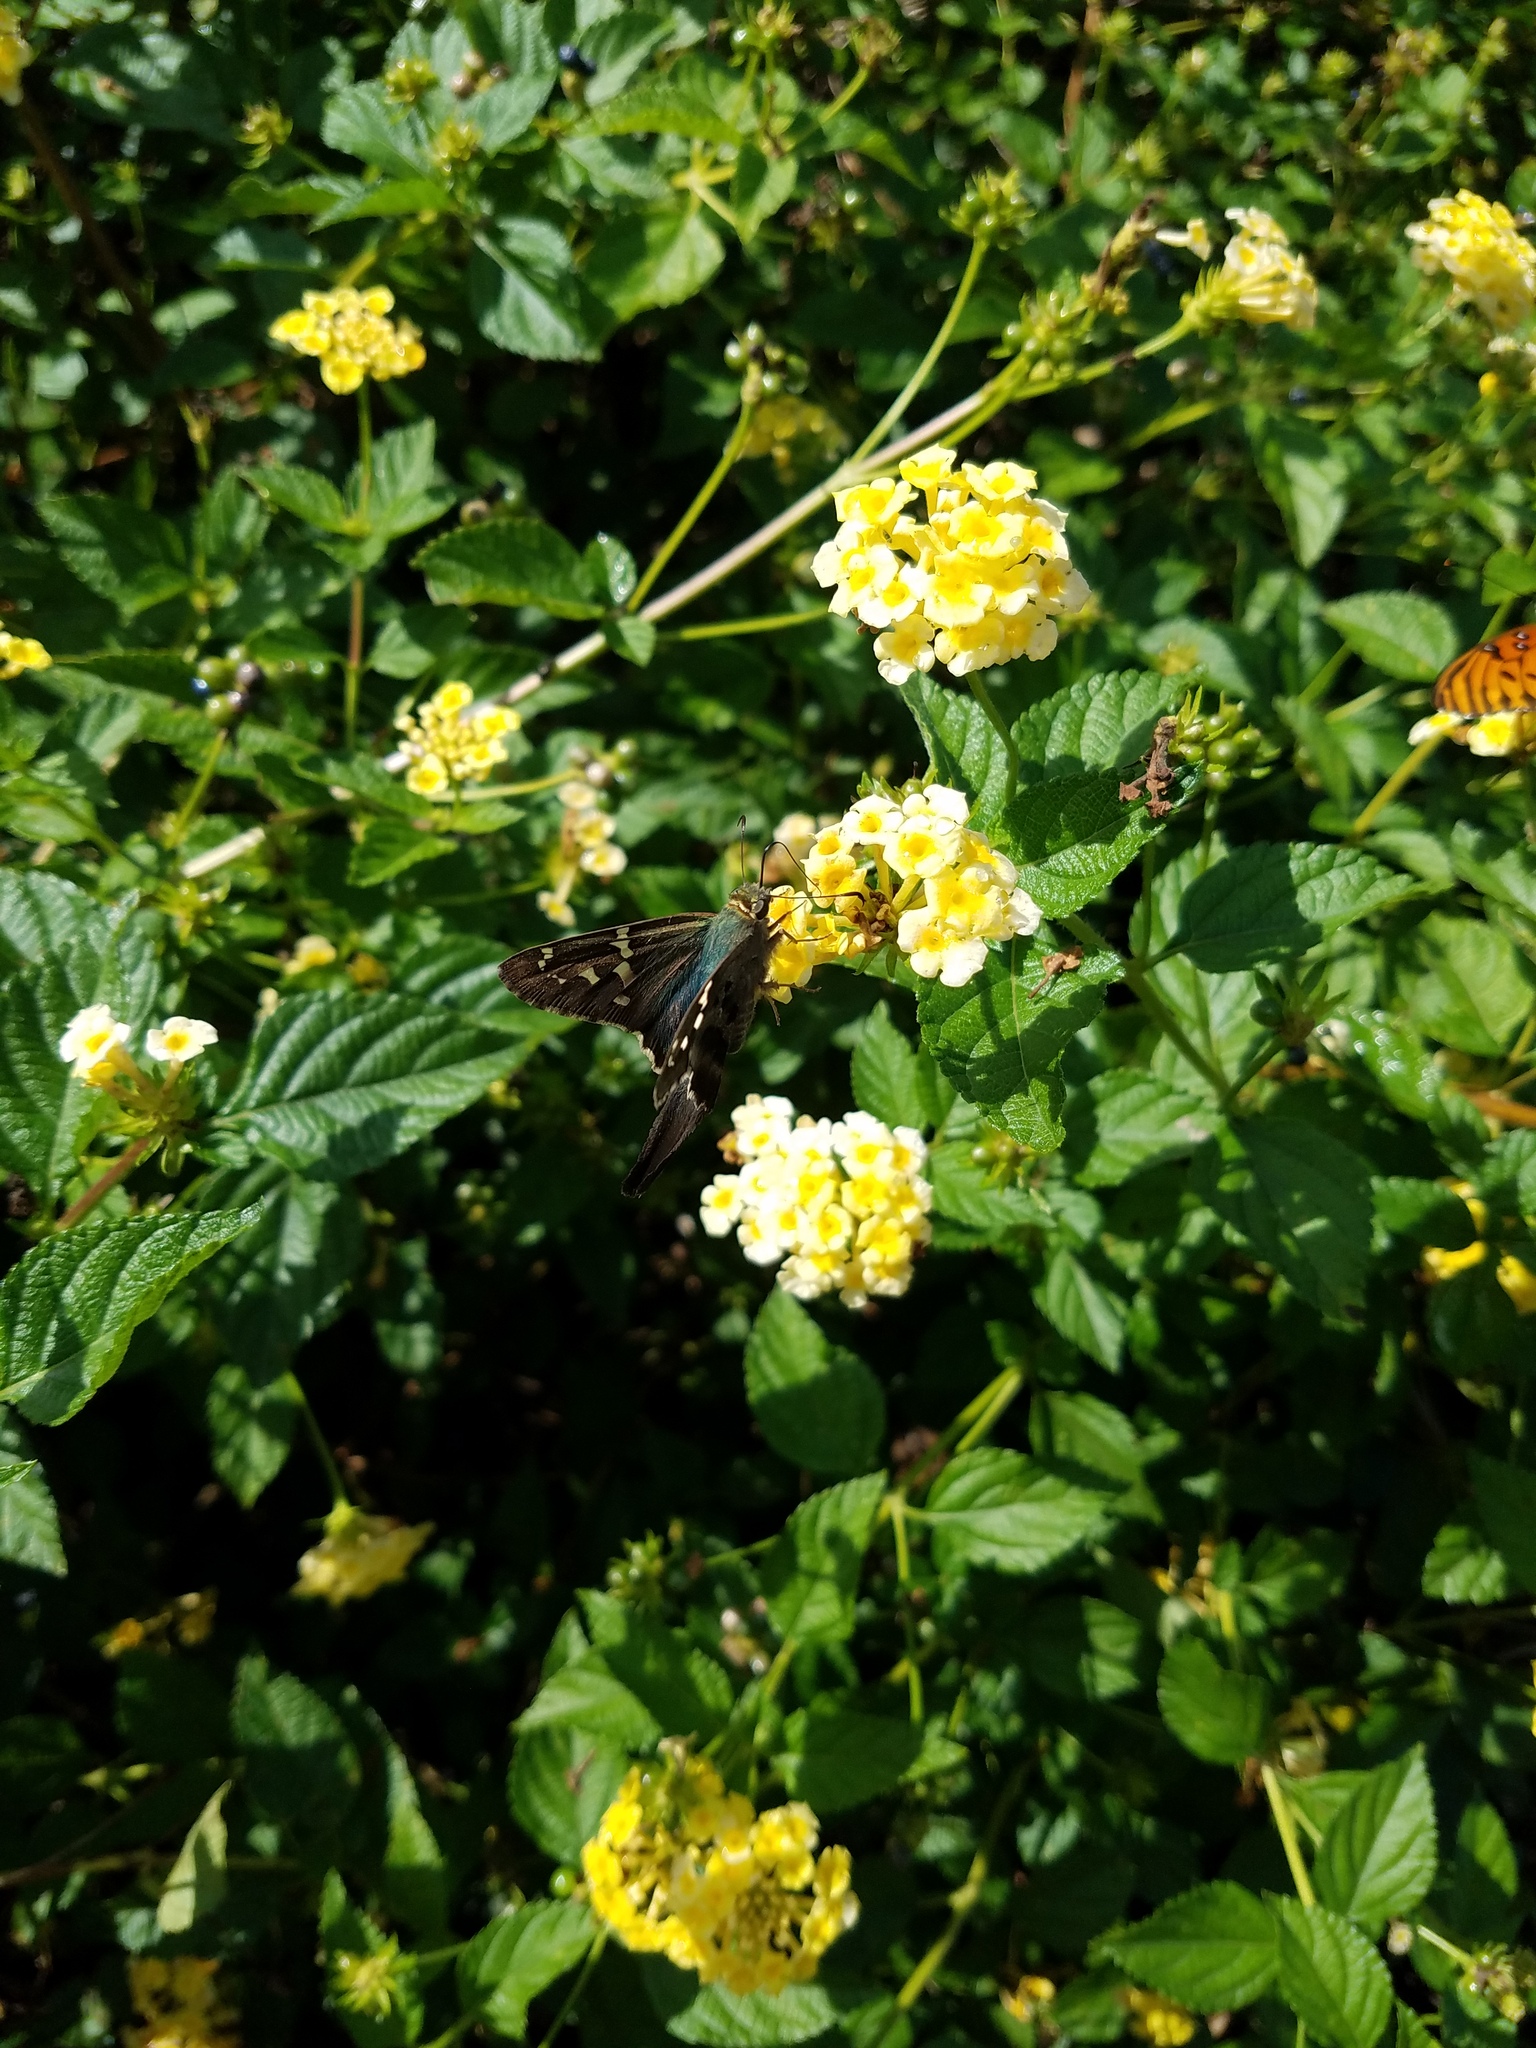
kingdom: Animalia
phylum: Arthropoda
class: Insecta
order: Lepidoptera
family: Hesperiidae
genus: Urbanus
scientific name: Urbanus proteus
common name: Long-tailed skipper
